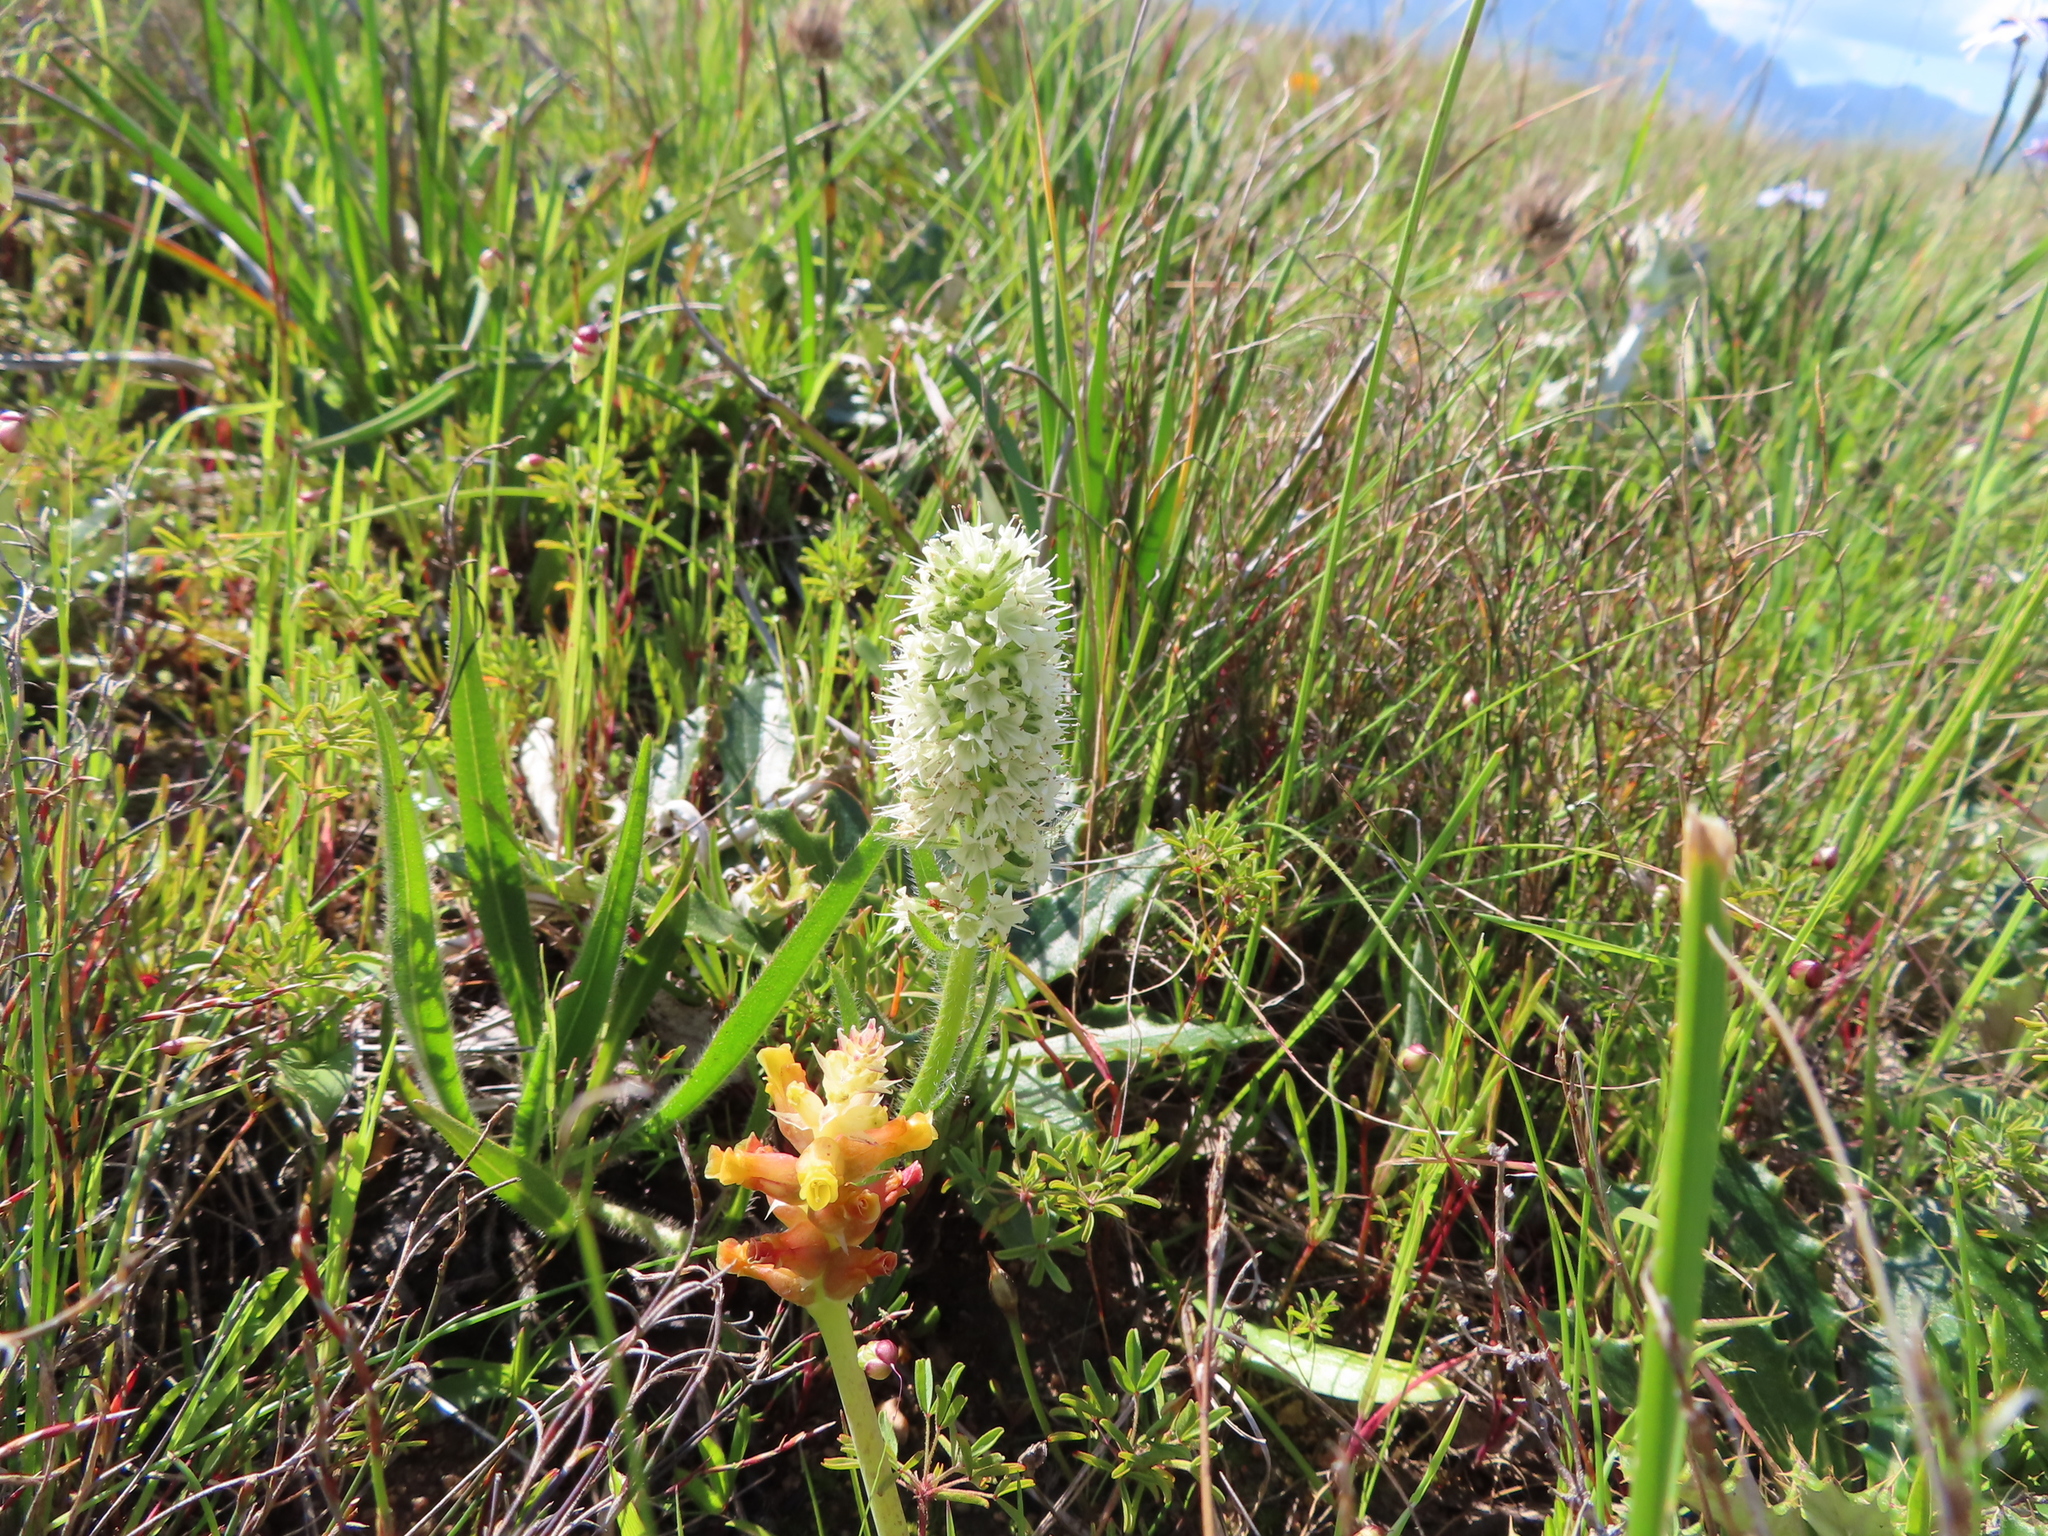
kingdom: Plantae
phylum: Tracheophyta
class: Magnoliopsida
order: Boraginales
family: Boraginaceae
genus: Lobostemon
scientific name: Lobostemon splendens
